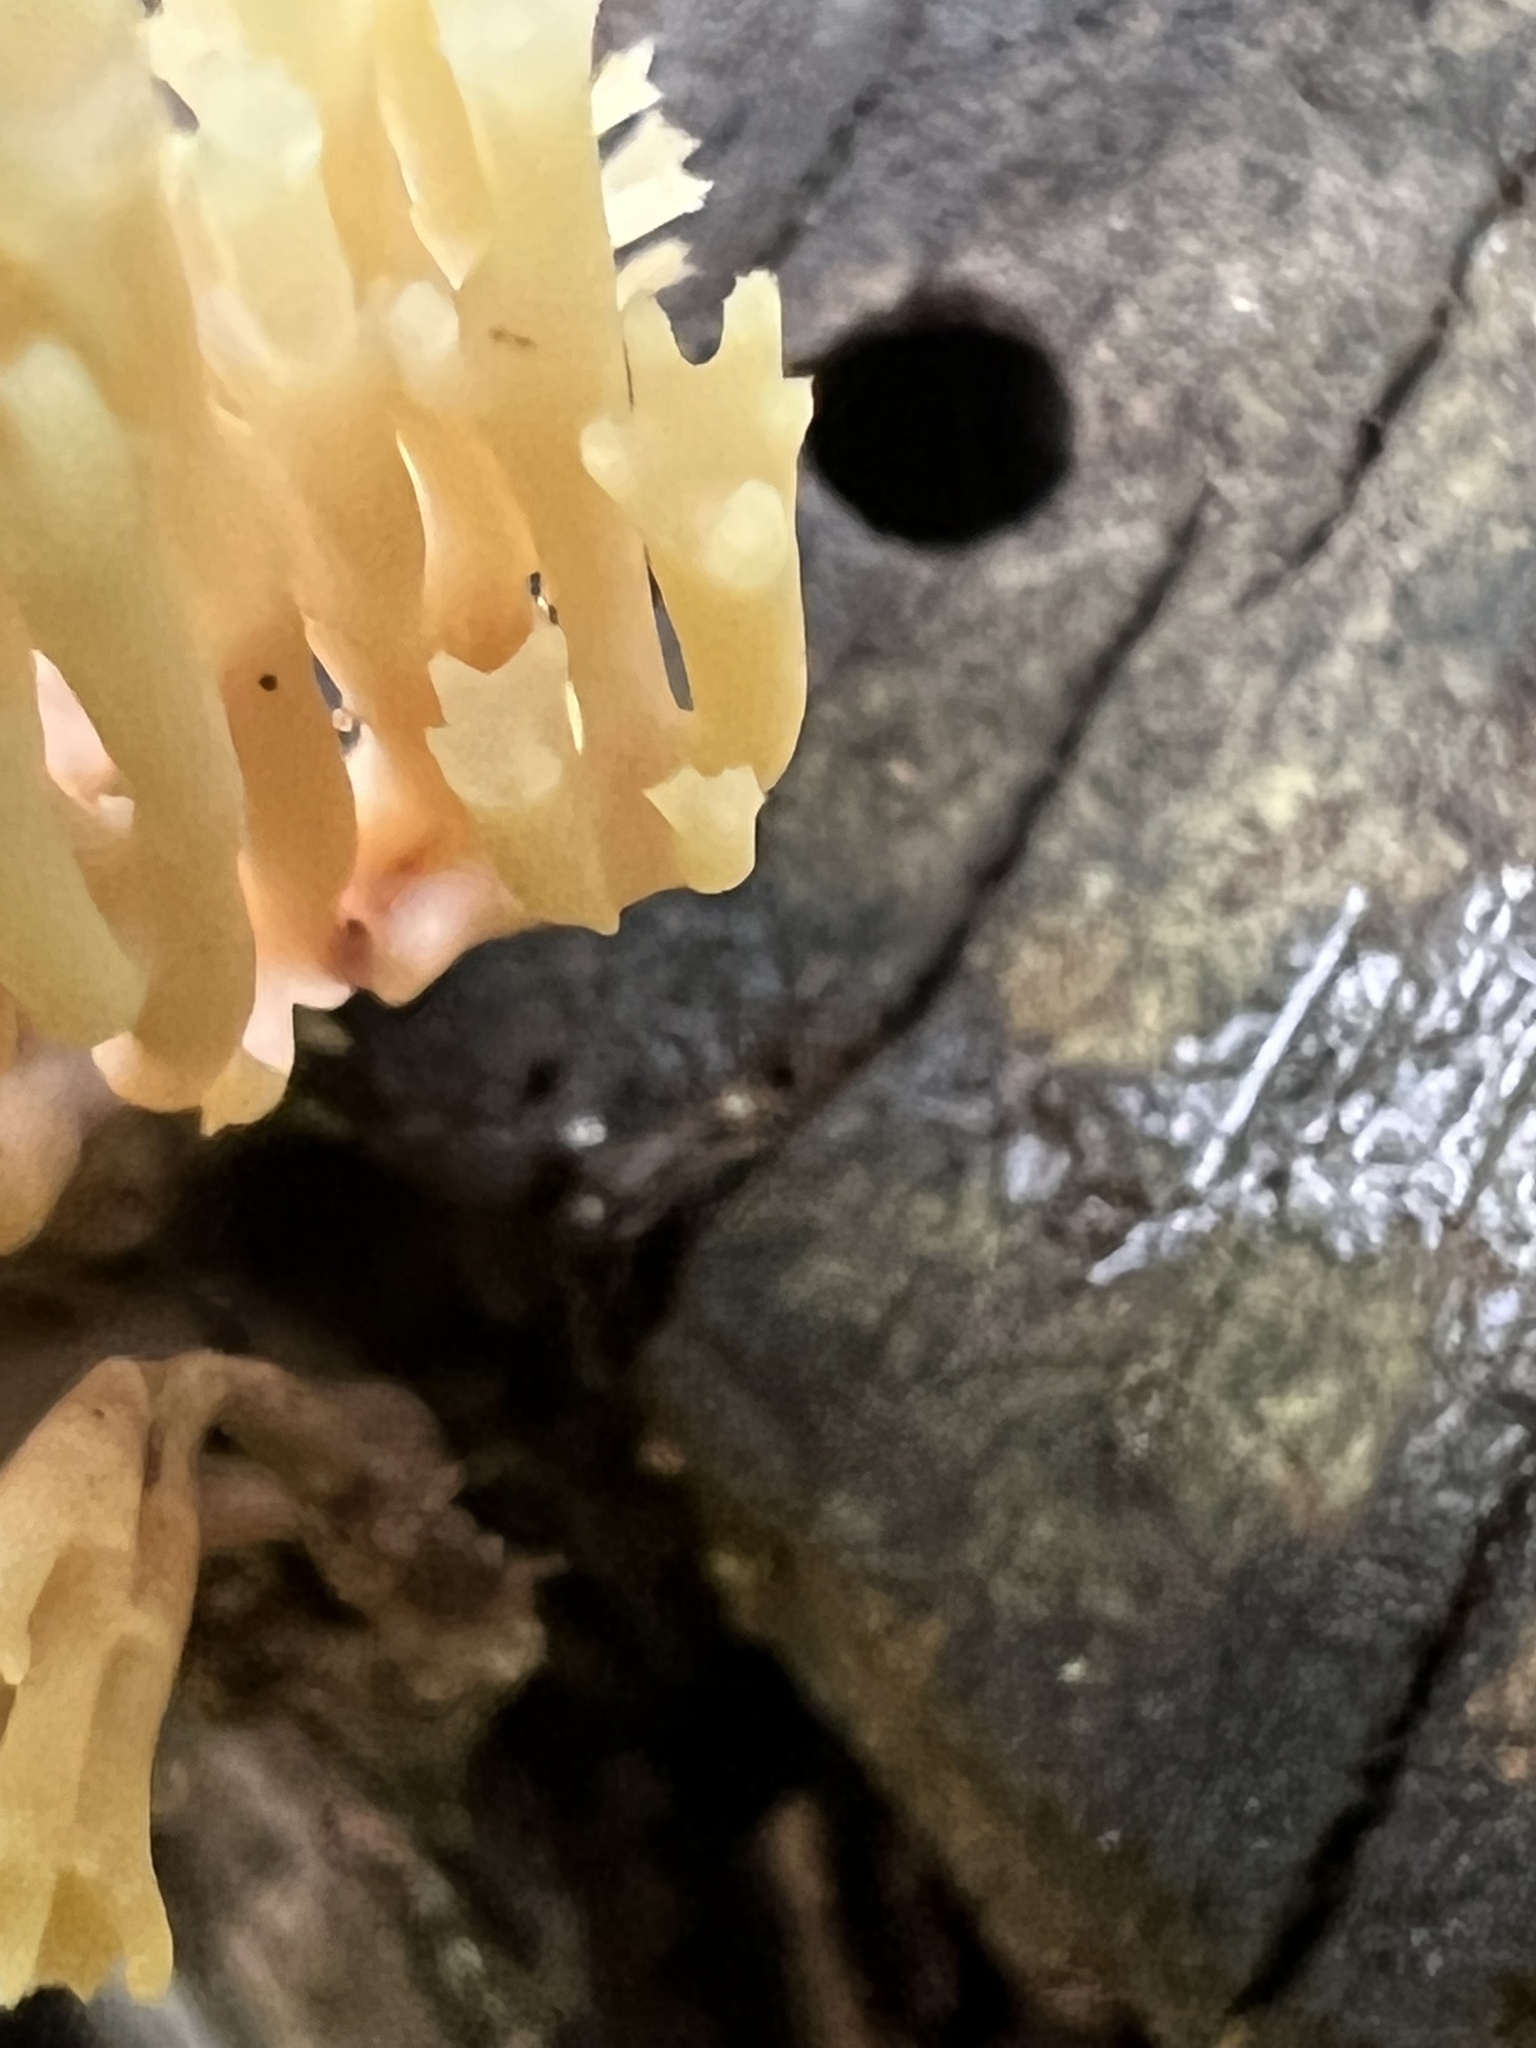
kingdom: Fungi
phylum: Basidiomycota
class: Agaricomycetes
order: Russulales
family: Auriscalpiaceae
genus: Artomyces
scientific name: Artomyces pyxidatus
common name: Crown-tipped coral fungus
